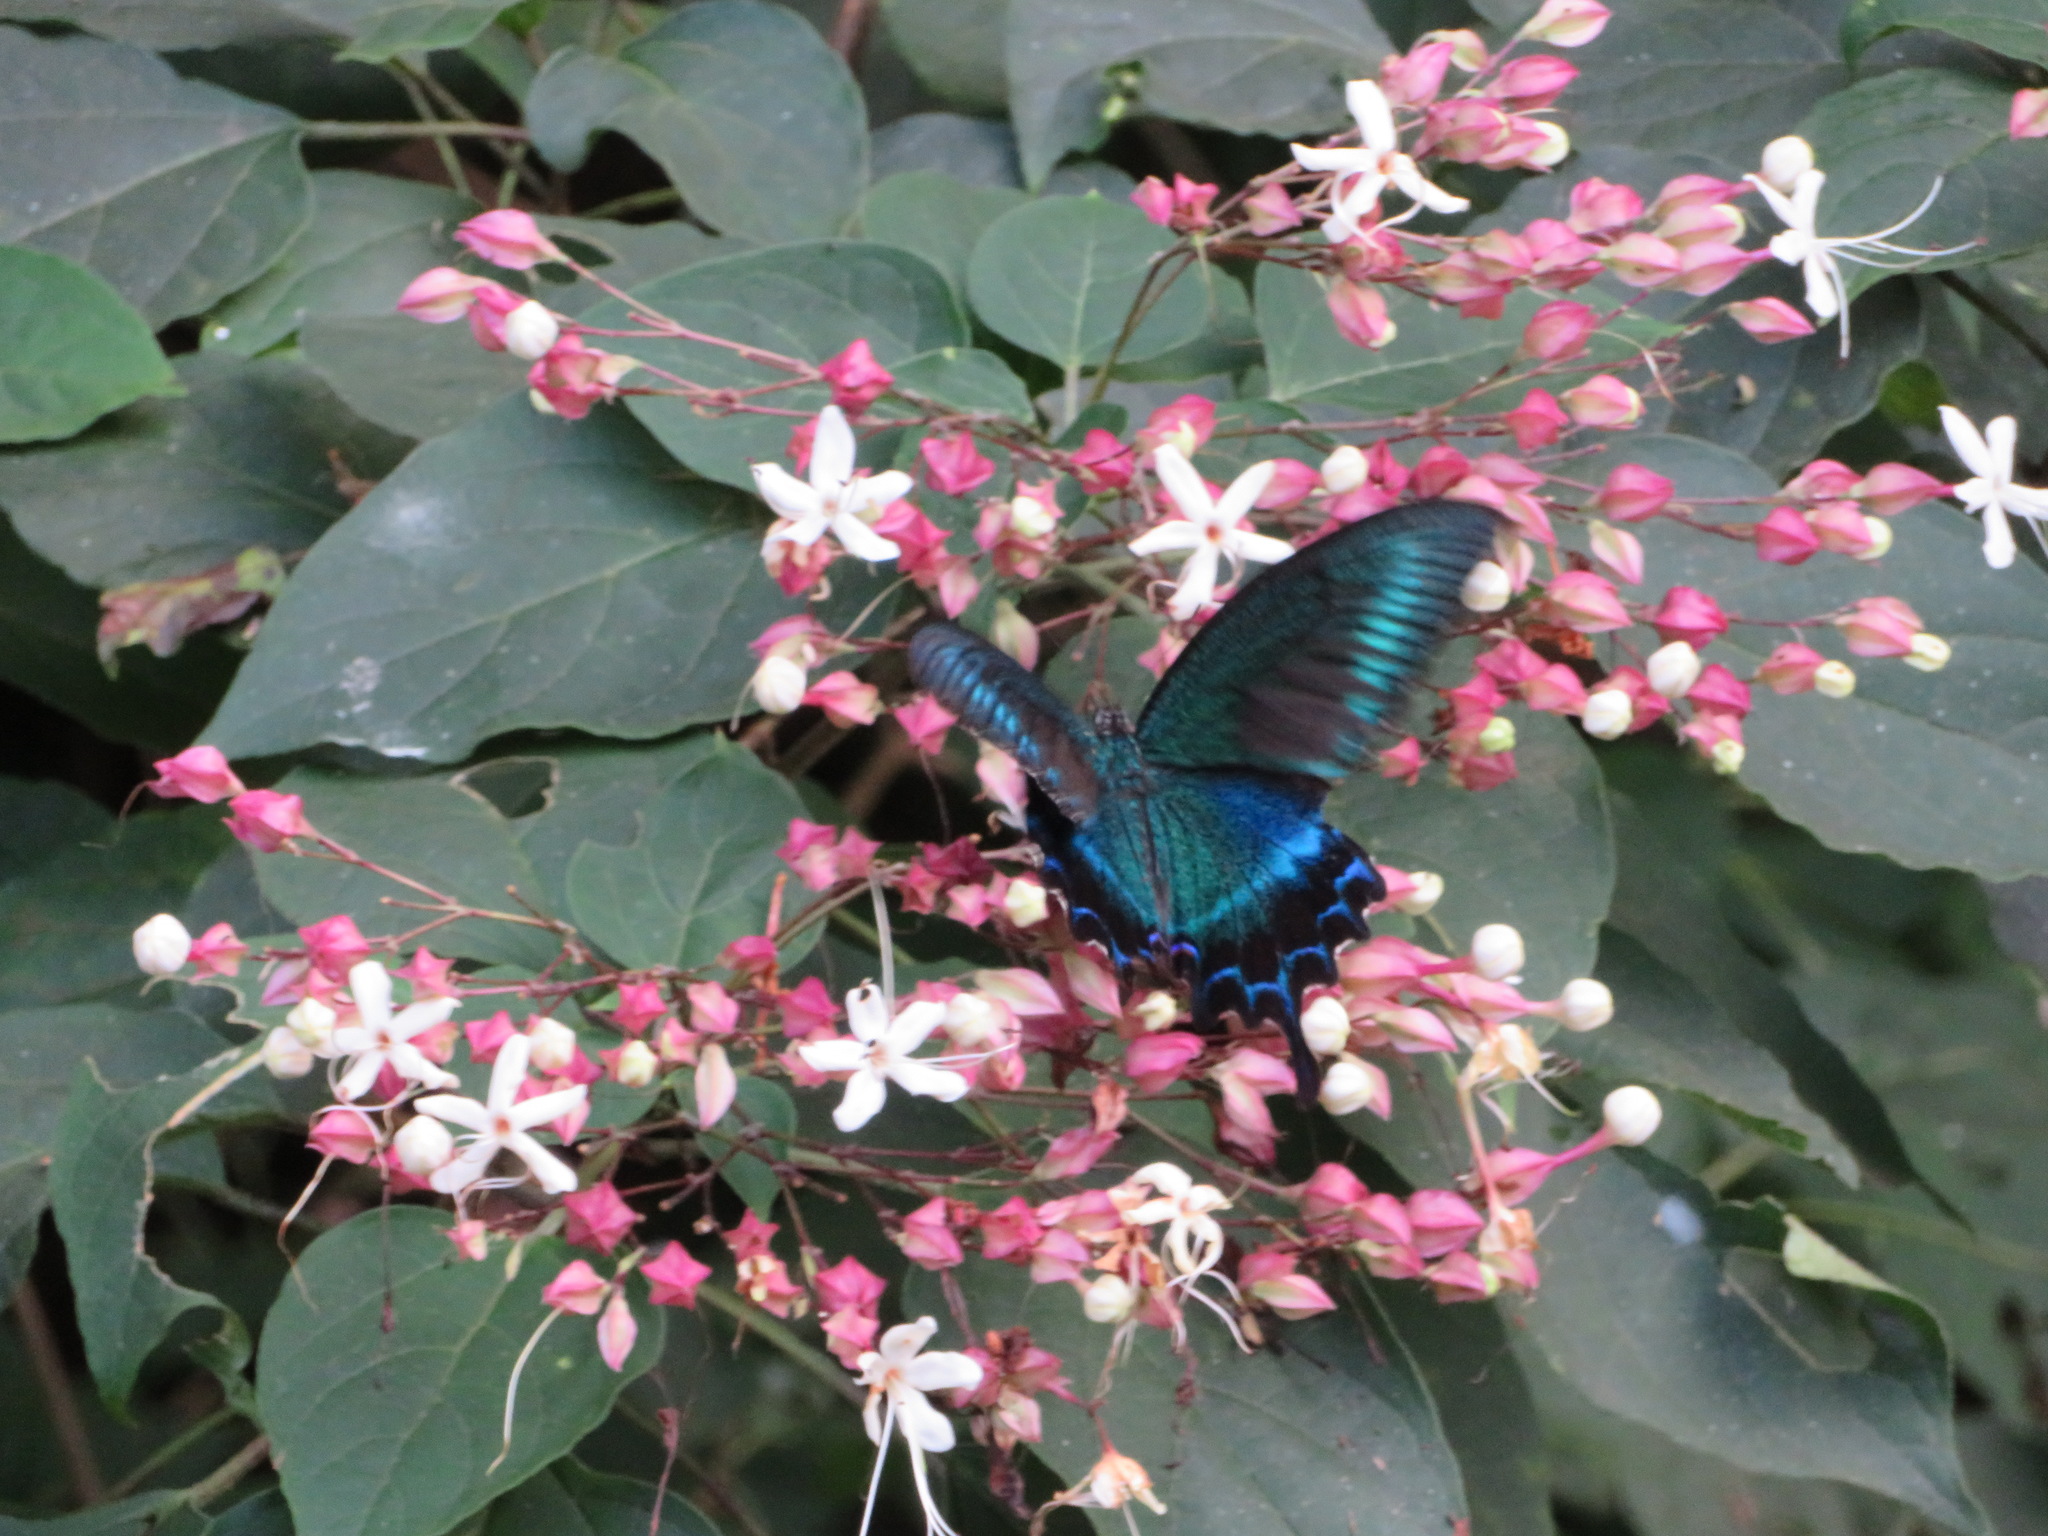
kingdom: Animalia
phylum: Arthropoda
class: Insecta
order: Lepidoptera
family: Papilionidae
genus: Papilio
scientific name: Papilio maackii
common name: Alpine black swallowtail
